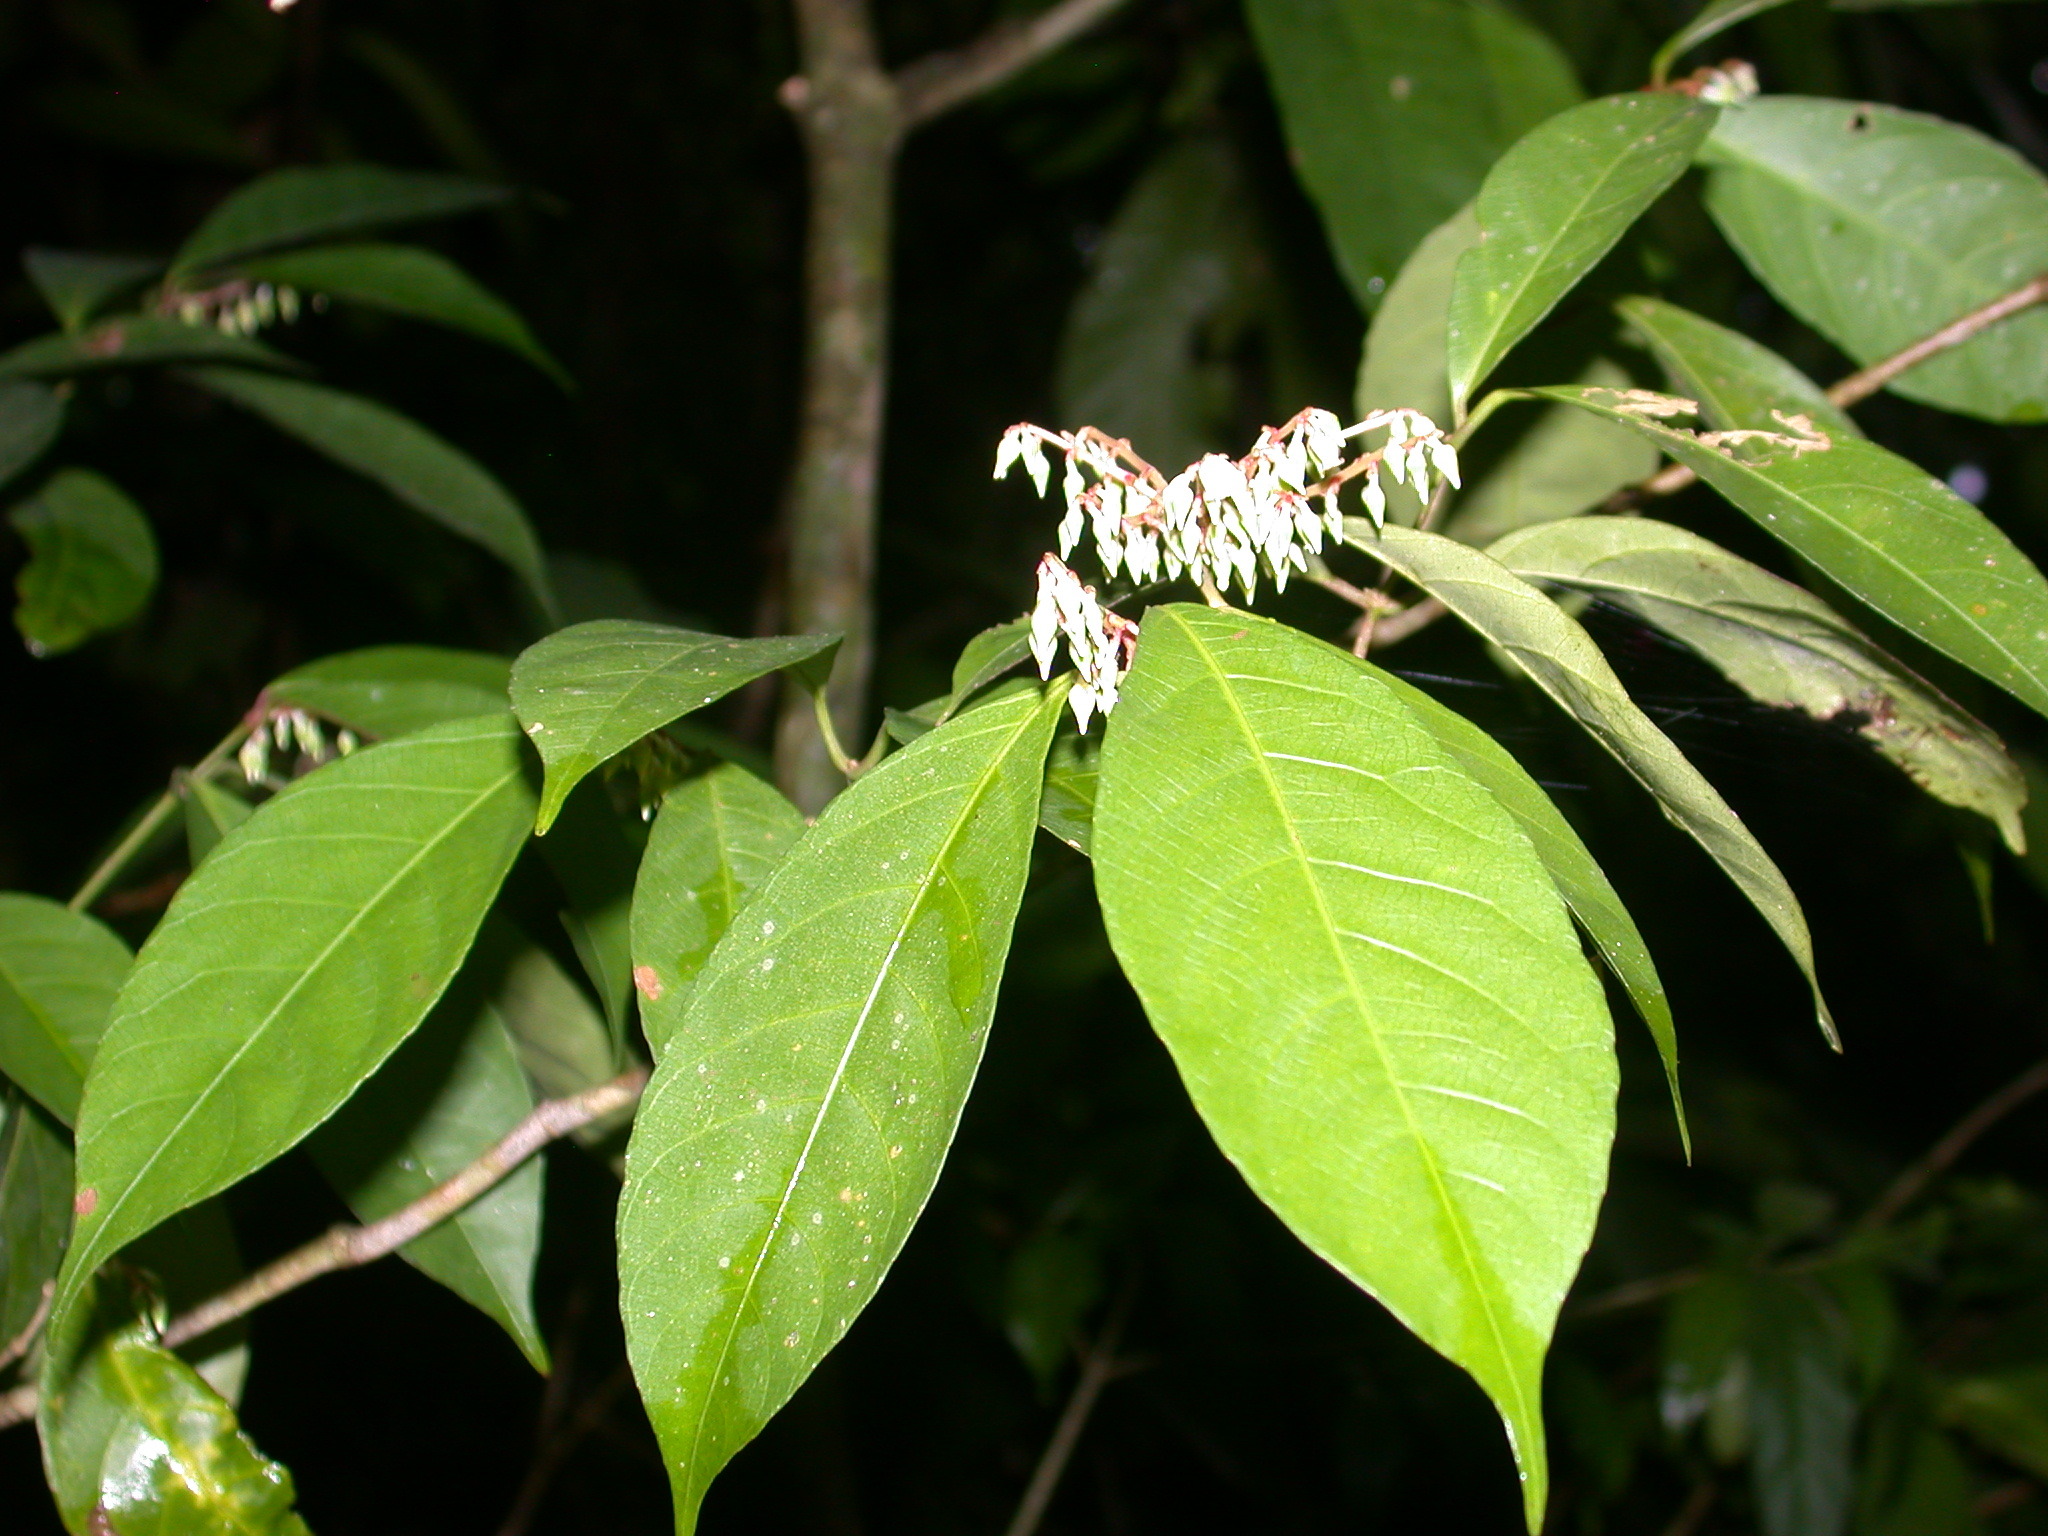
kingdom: Plantae
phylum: Tracheophyta
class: Magnoliopsida
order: Malpighiales
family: Violaceae
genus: Rinorea
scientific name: Rinorea guatemalensis
